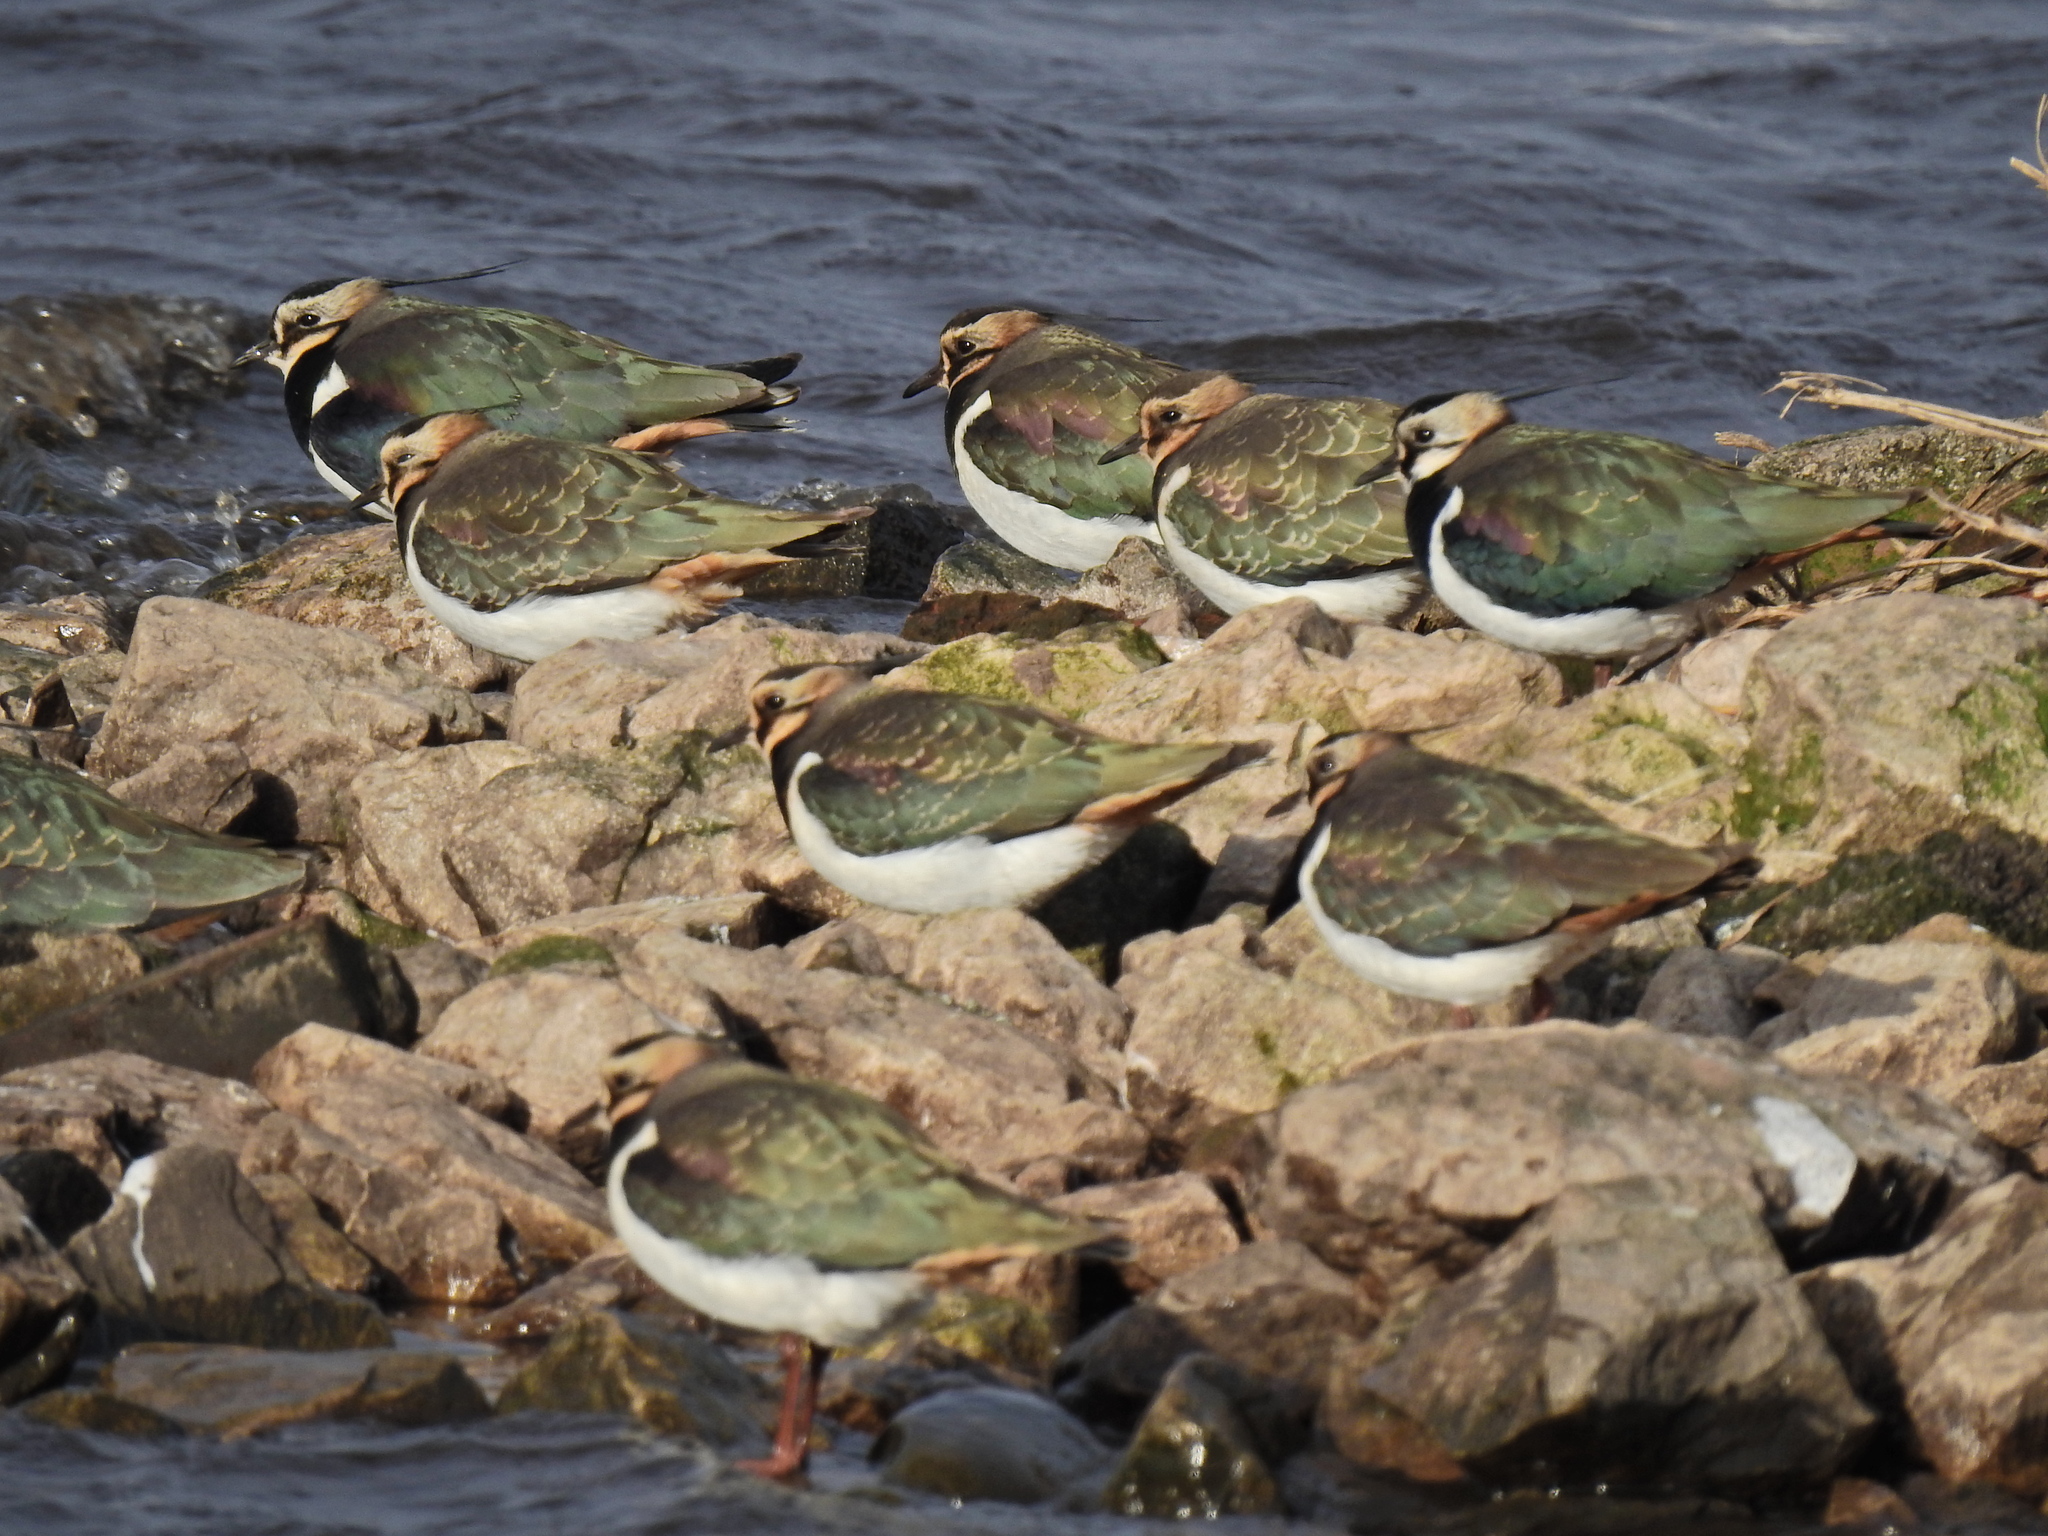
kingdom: Animalia
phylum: Chordata
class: Aves
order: Charadriiformes
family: Charadriidae
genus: Vanellus
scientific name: Vanellus vanellus
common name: Northern lapwing
